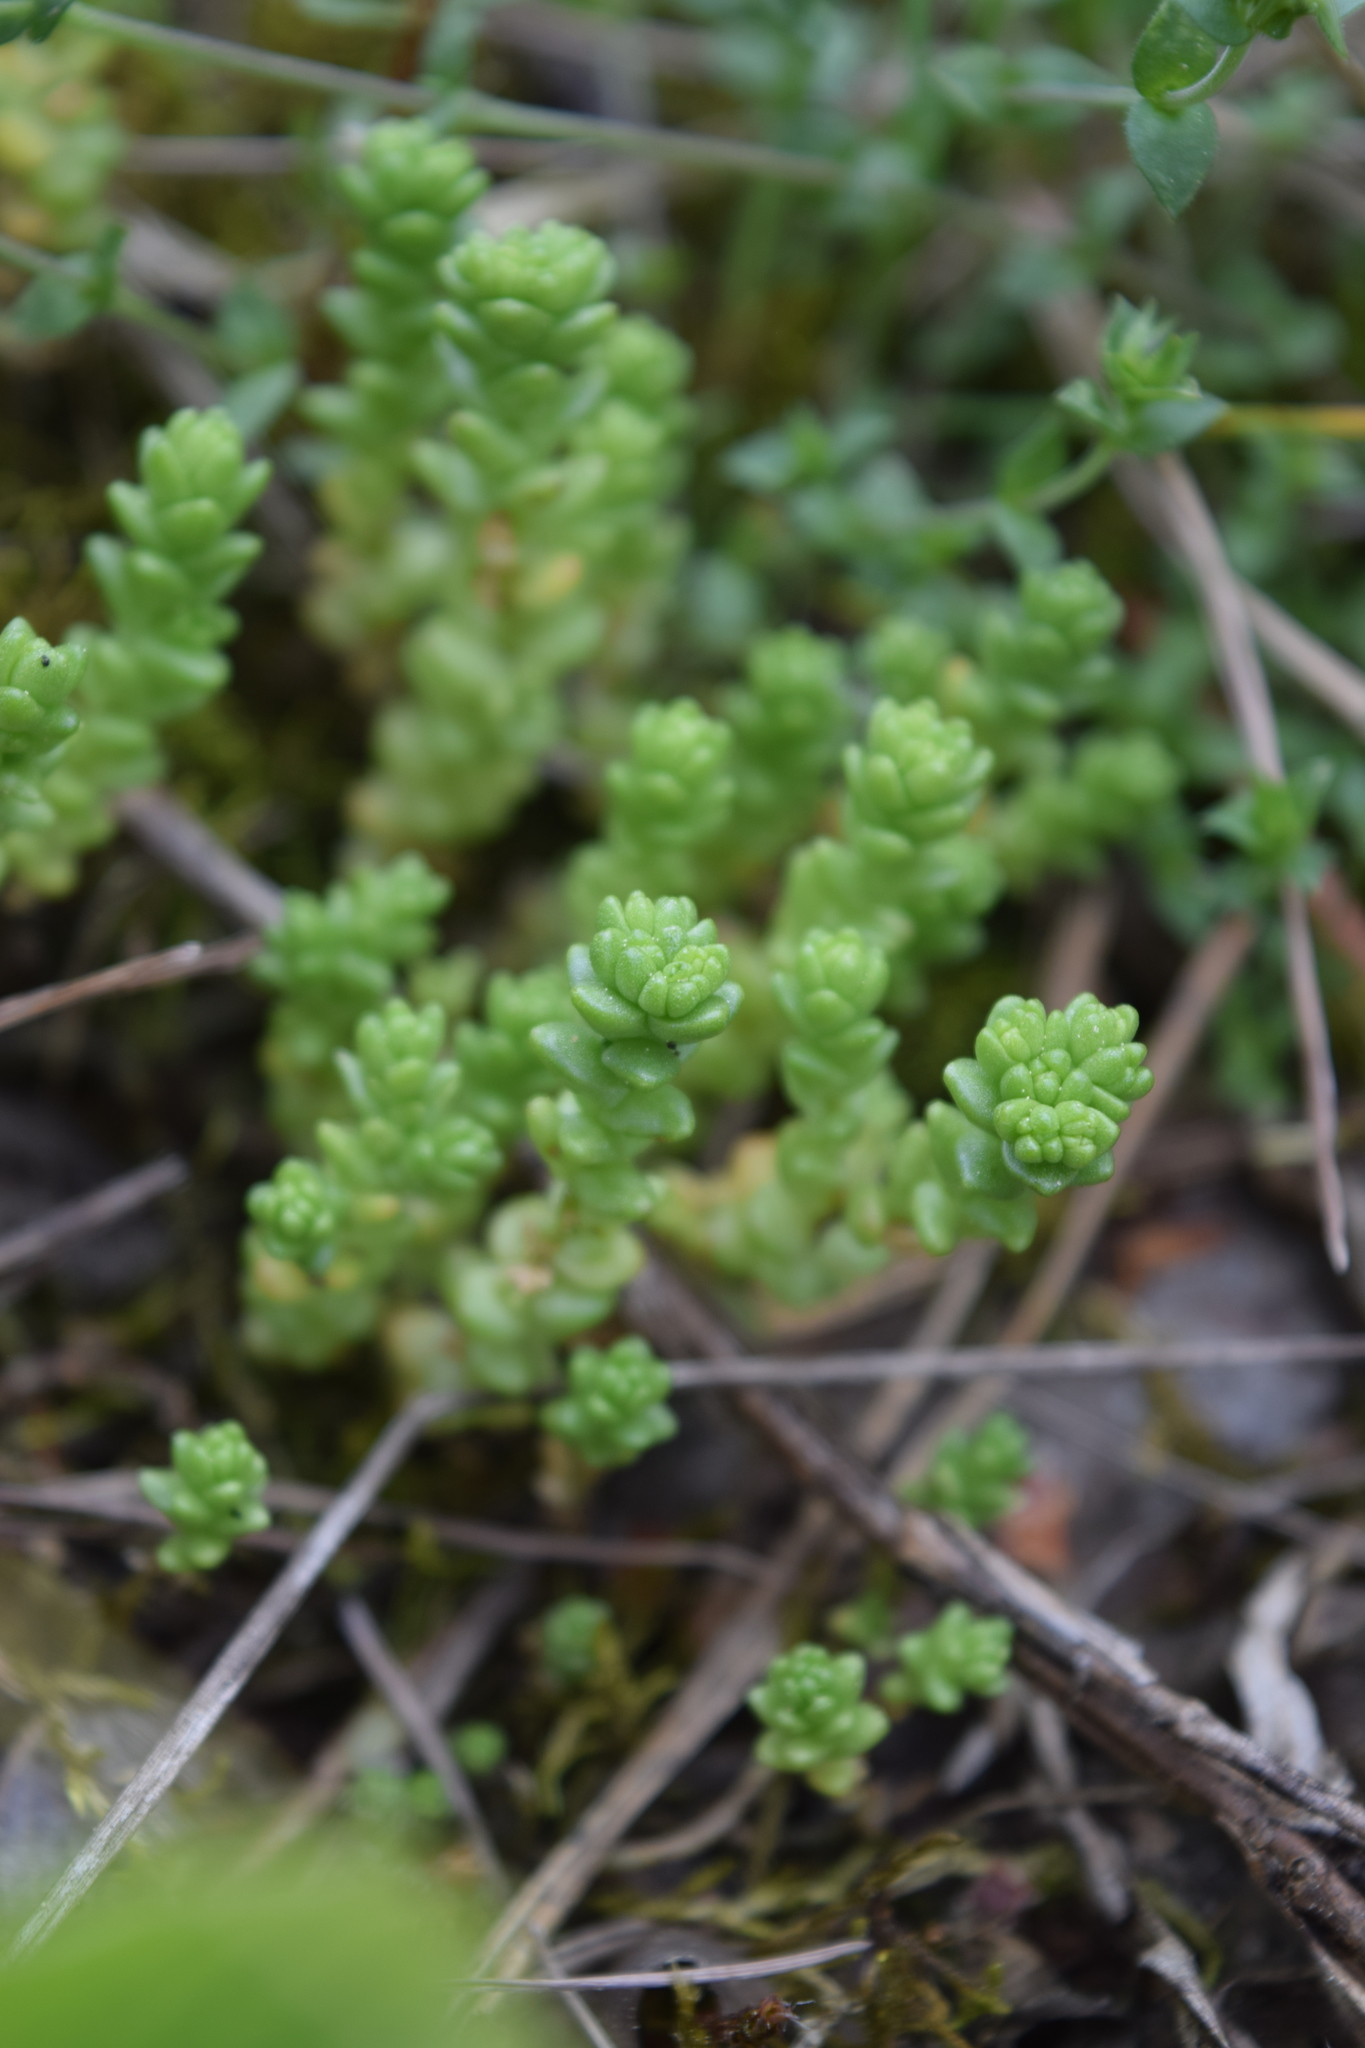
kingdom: Plantae
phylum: Tracheophyta
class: Magnoliopsida
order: Saxifragales
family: Crassulaceae
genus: Sedum
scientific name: Sedum acre
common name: Biting stonecrop
